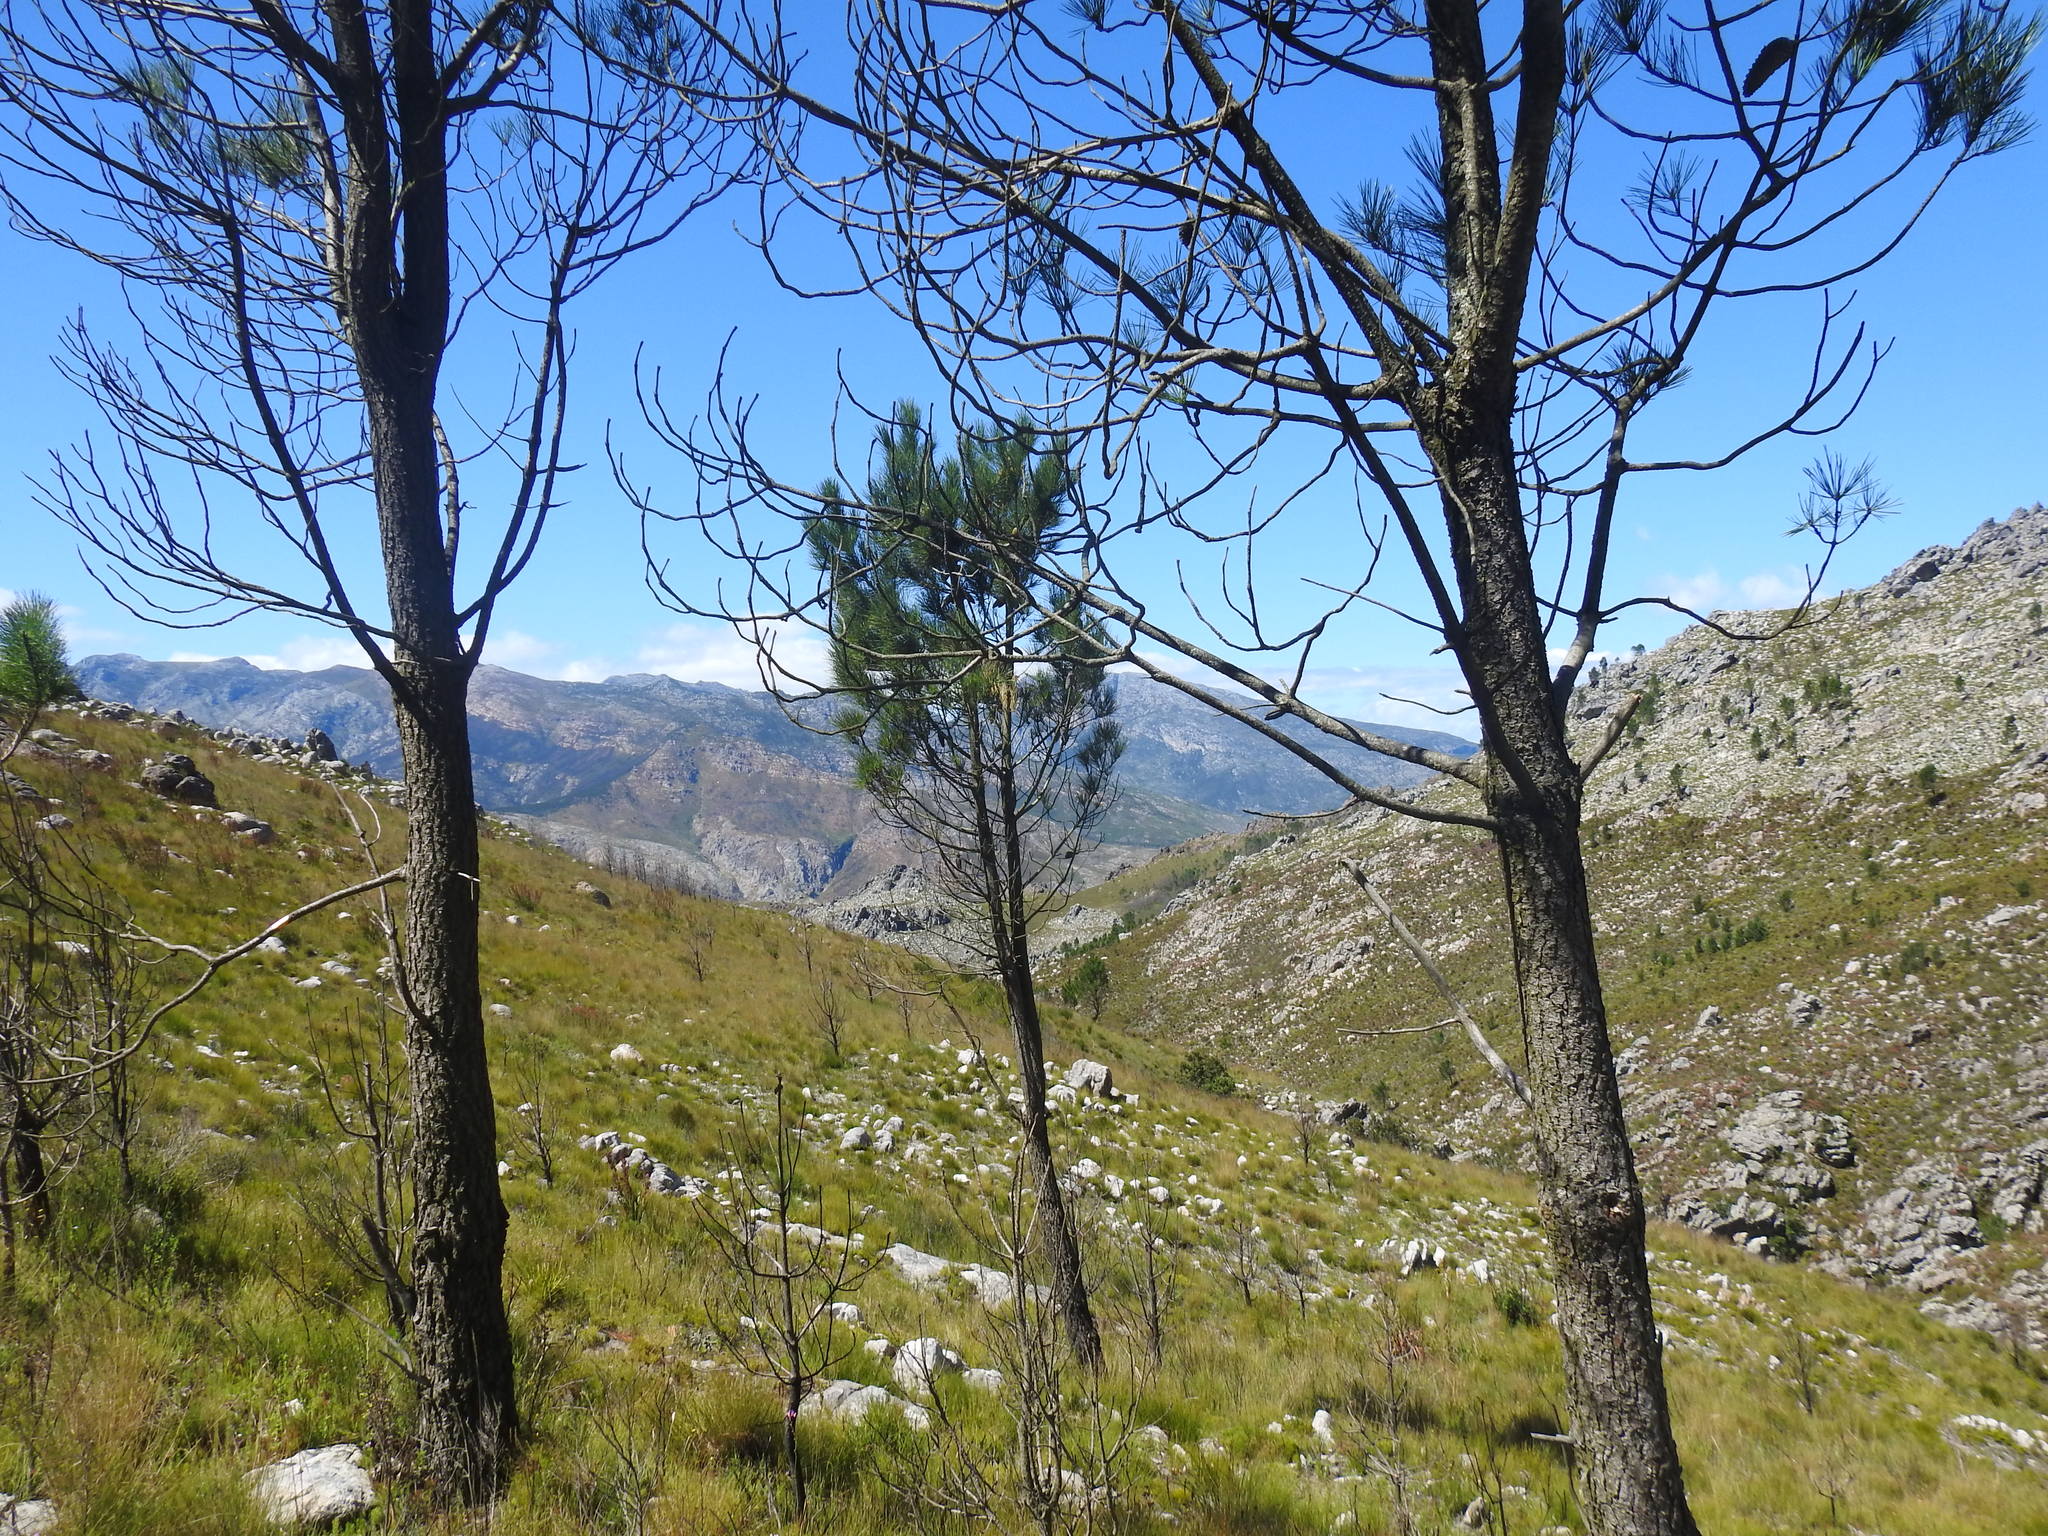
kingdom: Plantae
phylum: Tracheophyta
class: Pinopsida
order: Pinales
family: Pinaceae
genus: Pinus
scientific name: Pinus pinaster
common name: Maritime pine
